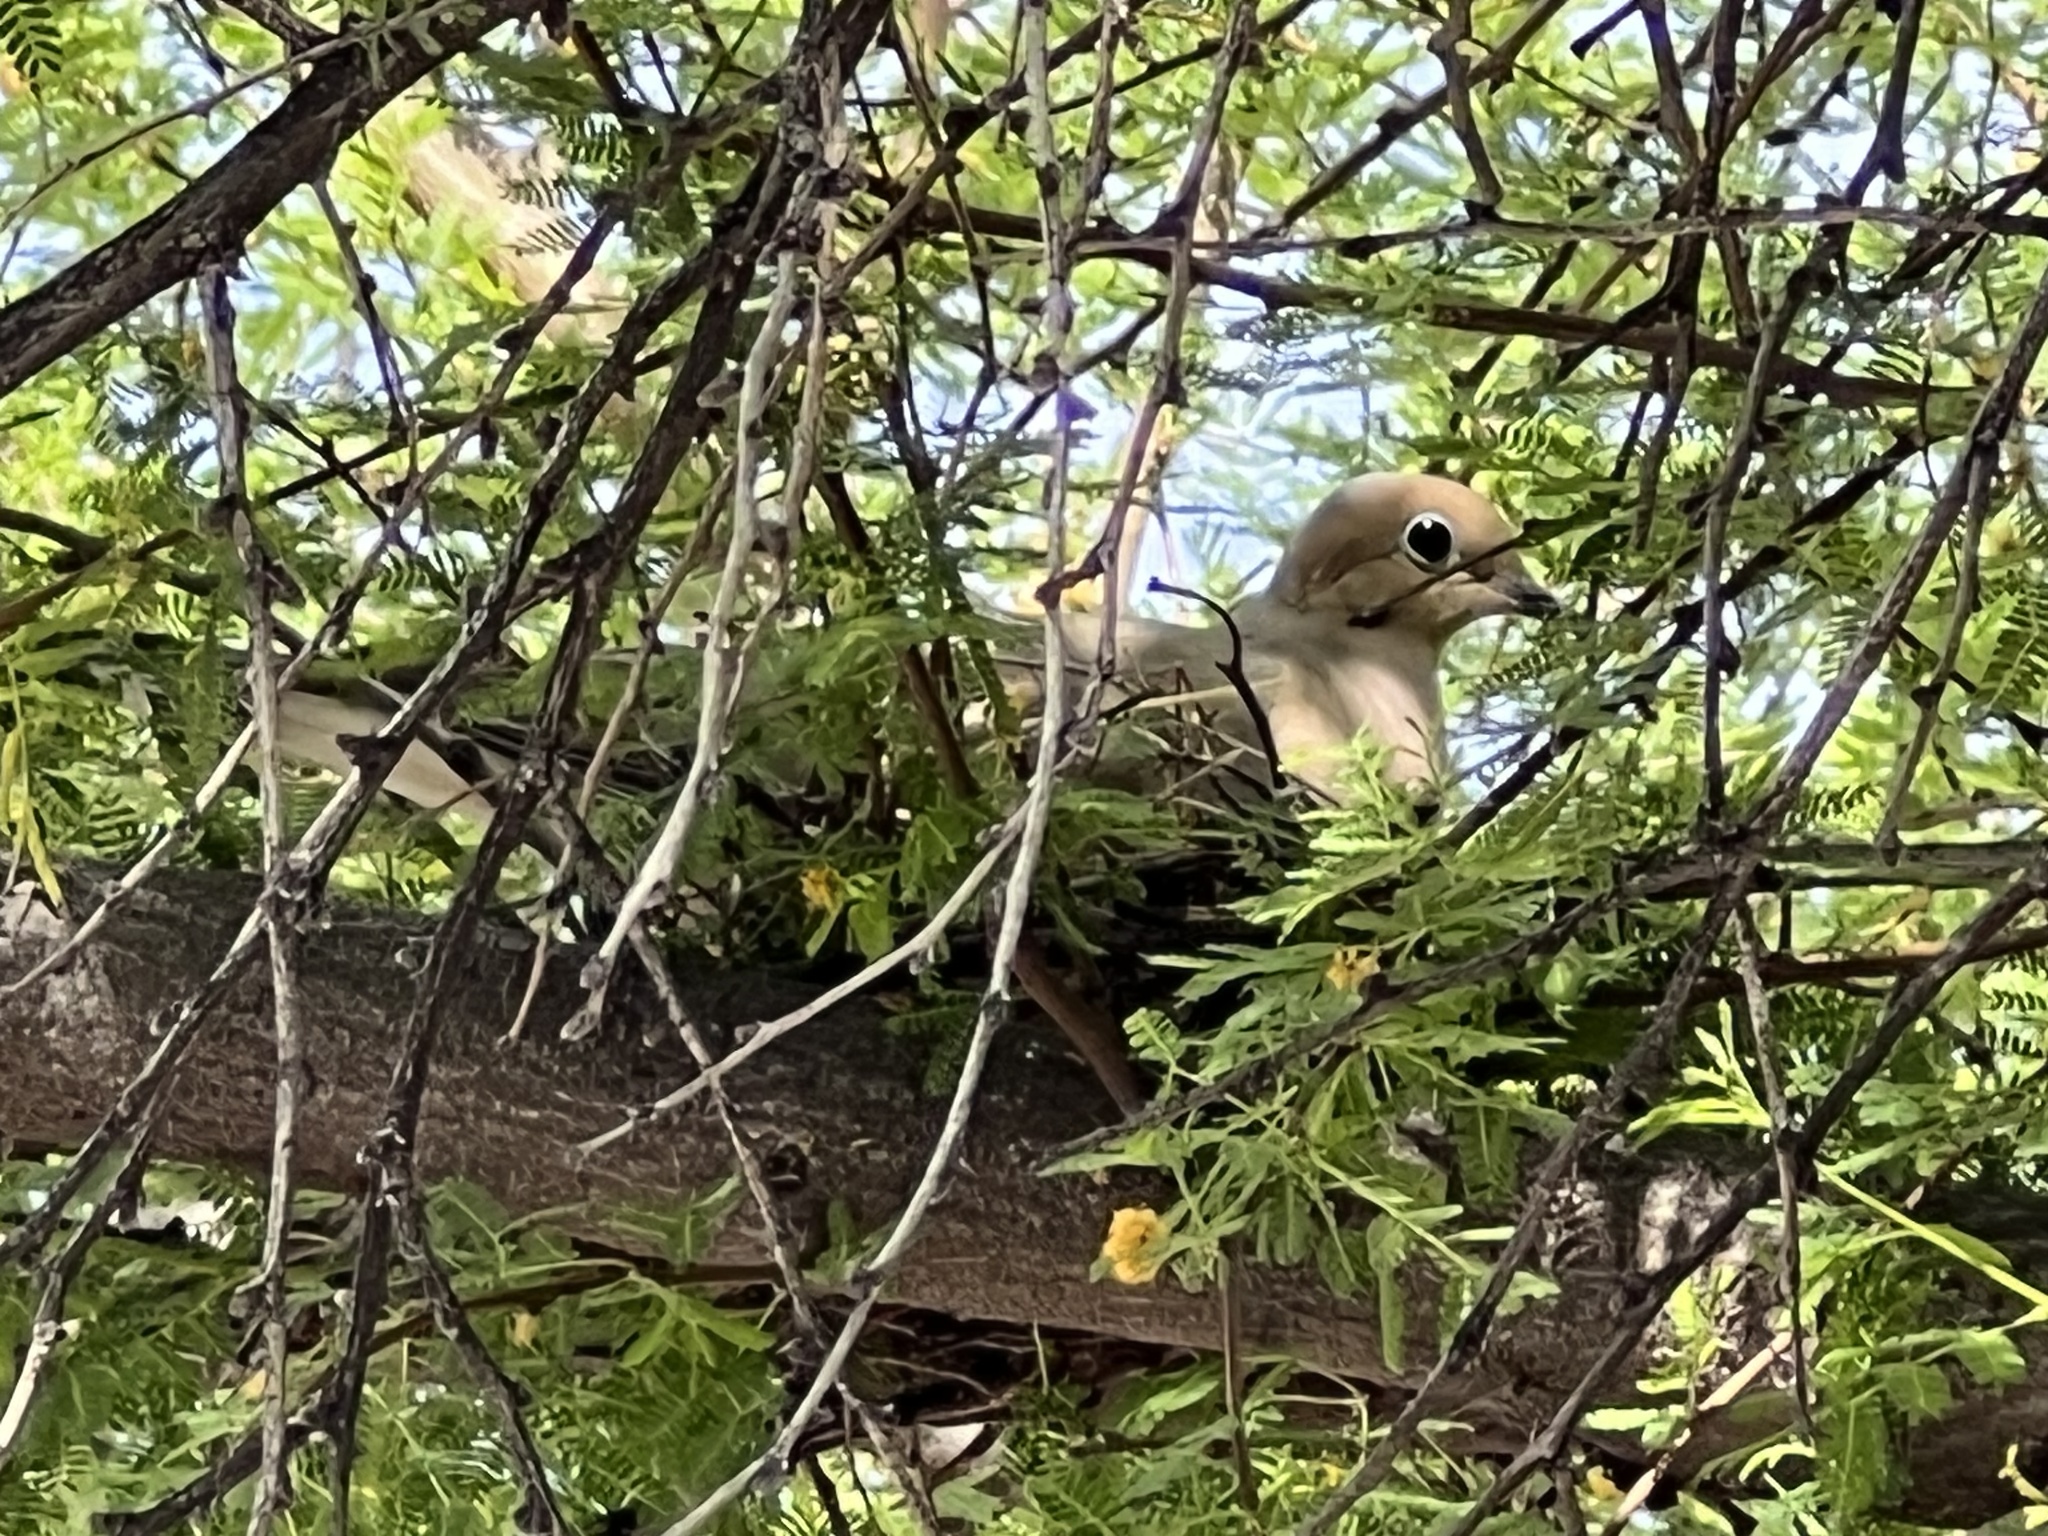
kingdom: Animalia
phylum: Chordata
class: Aves
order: Columbiformes
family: Columbidae
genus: Zenaida
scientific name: Zenaida macroura
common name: Mourning dove
